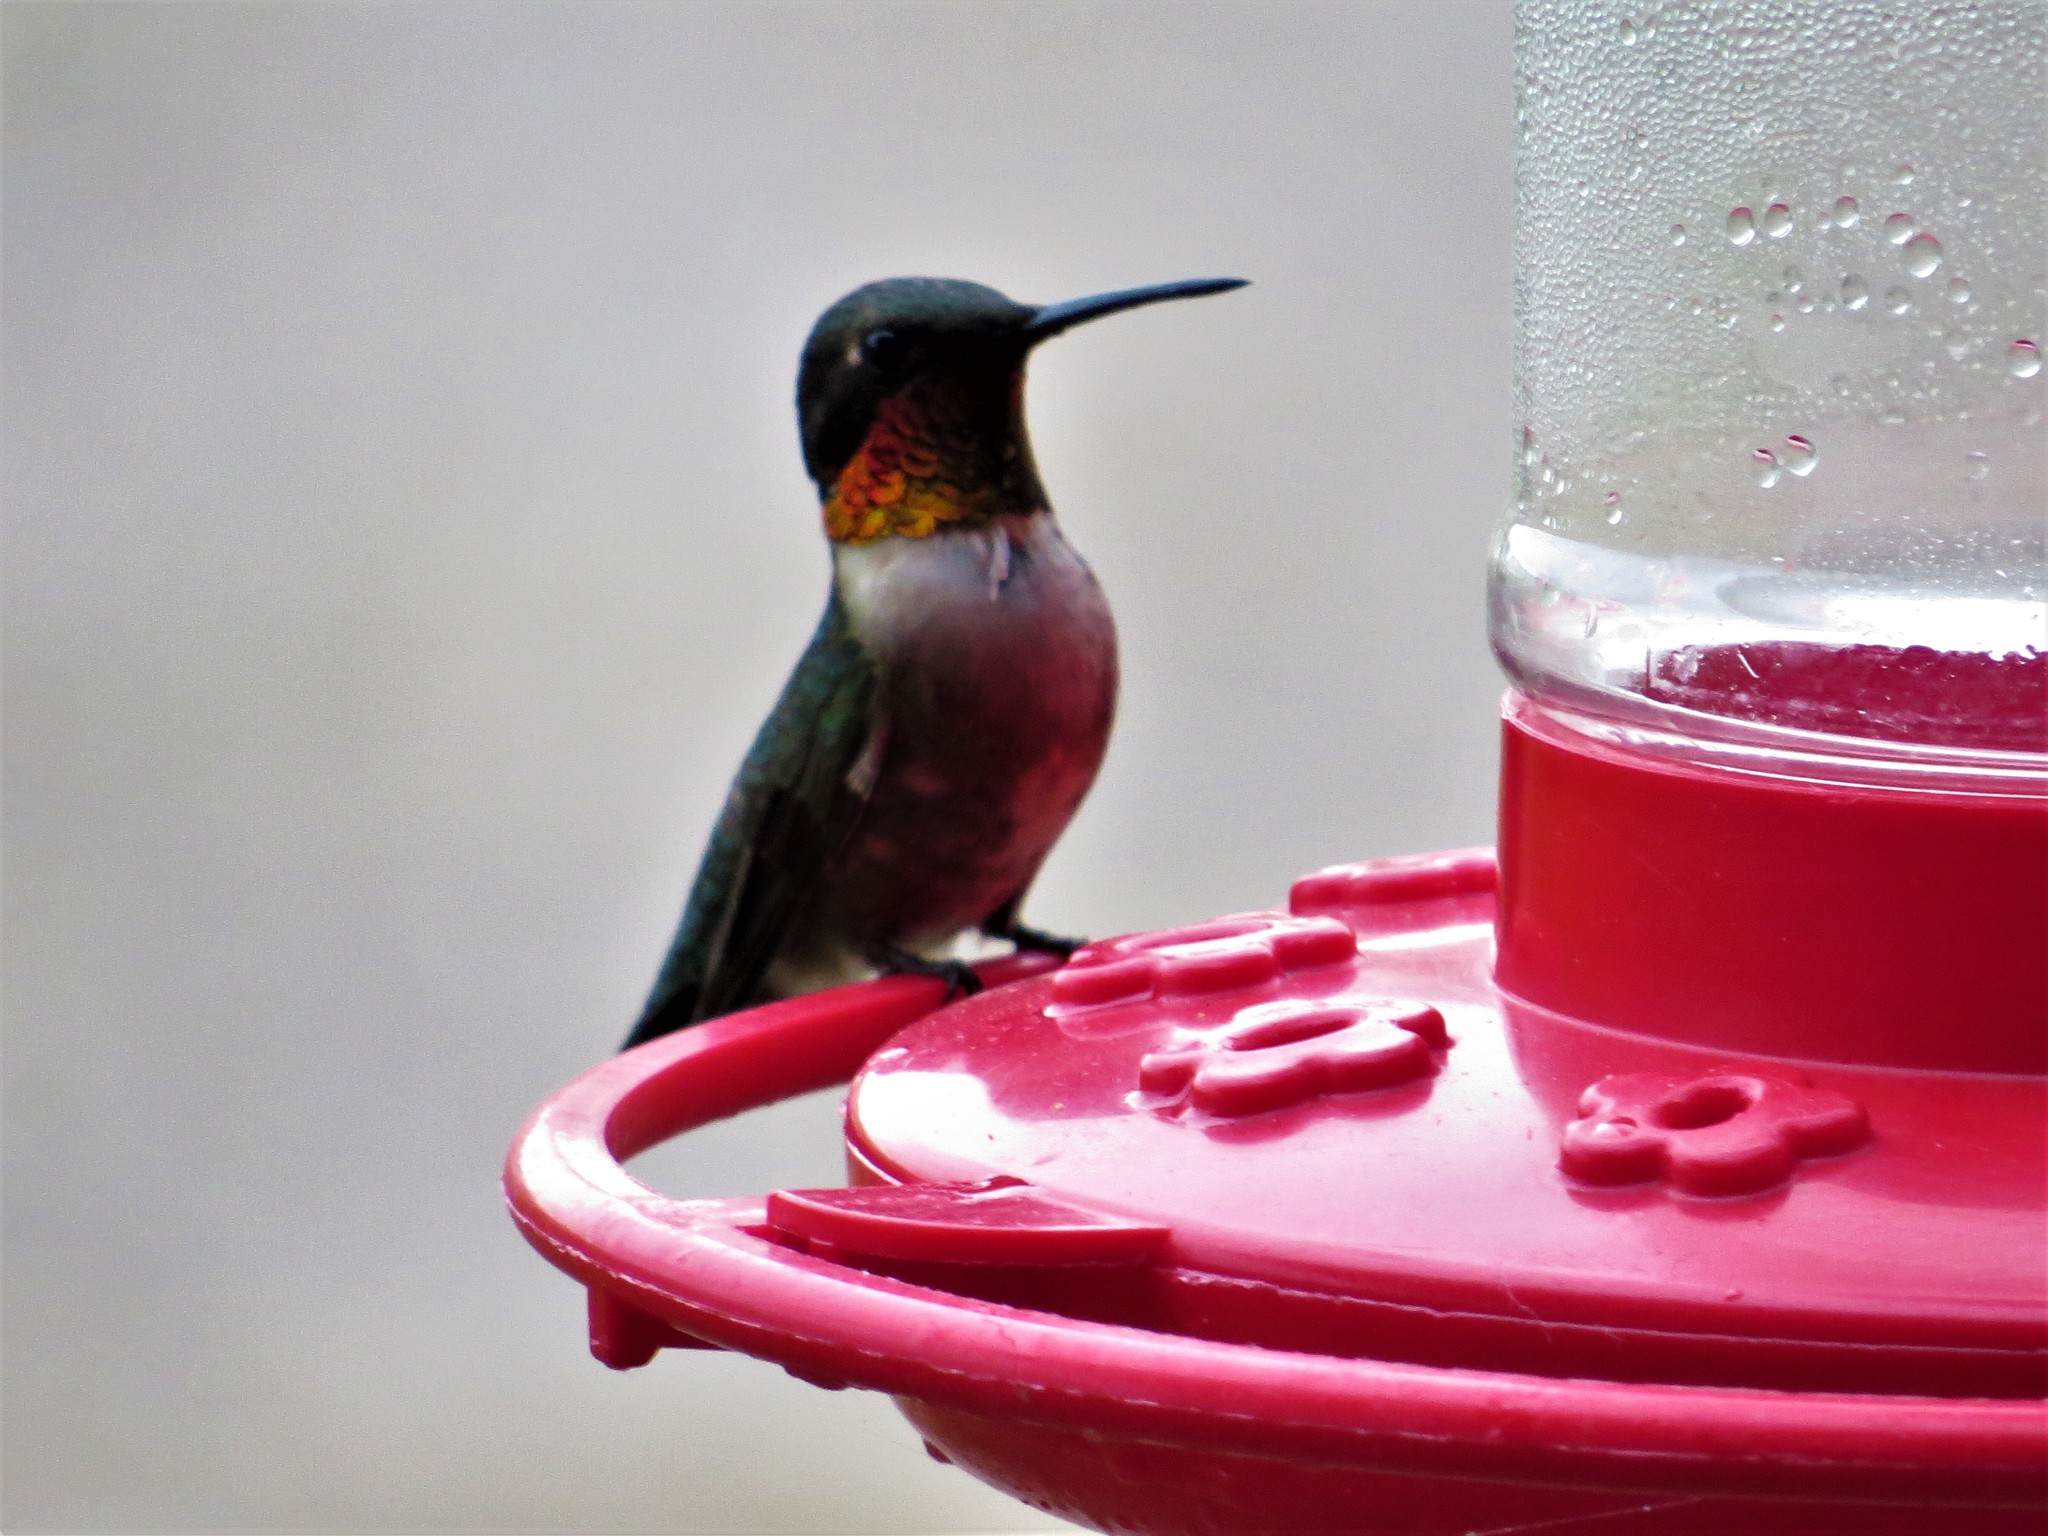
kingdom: Animalia
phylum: Chordata
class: Aves
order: Apodiformes
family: Trochilidae
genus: Archilochus
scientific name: Archilochus colubris
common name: Ruby-throated hummingbird
